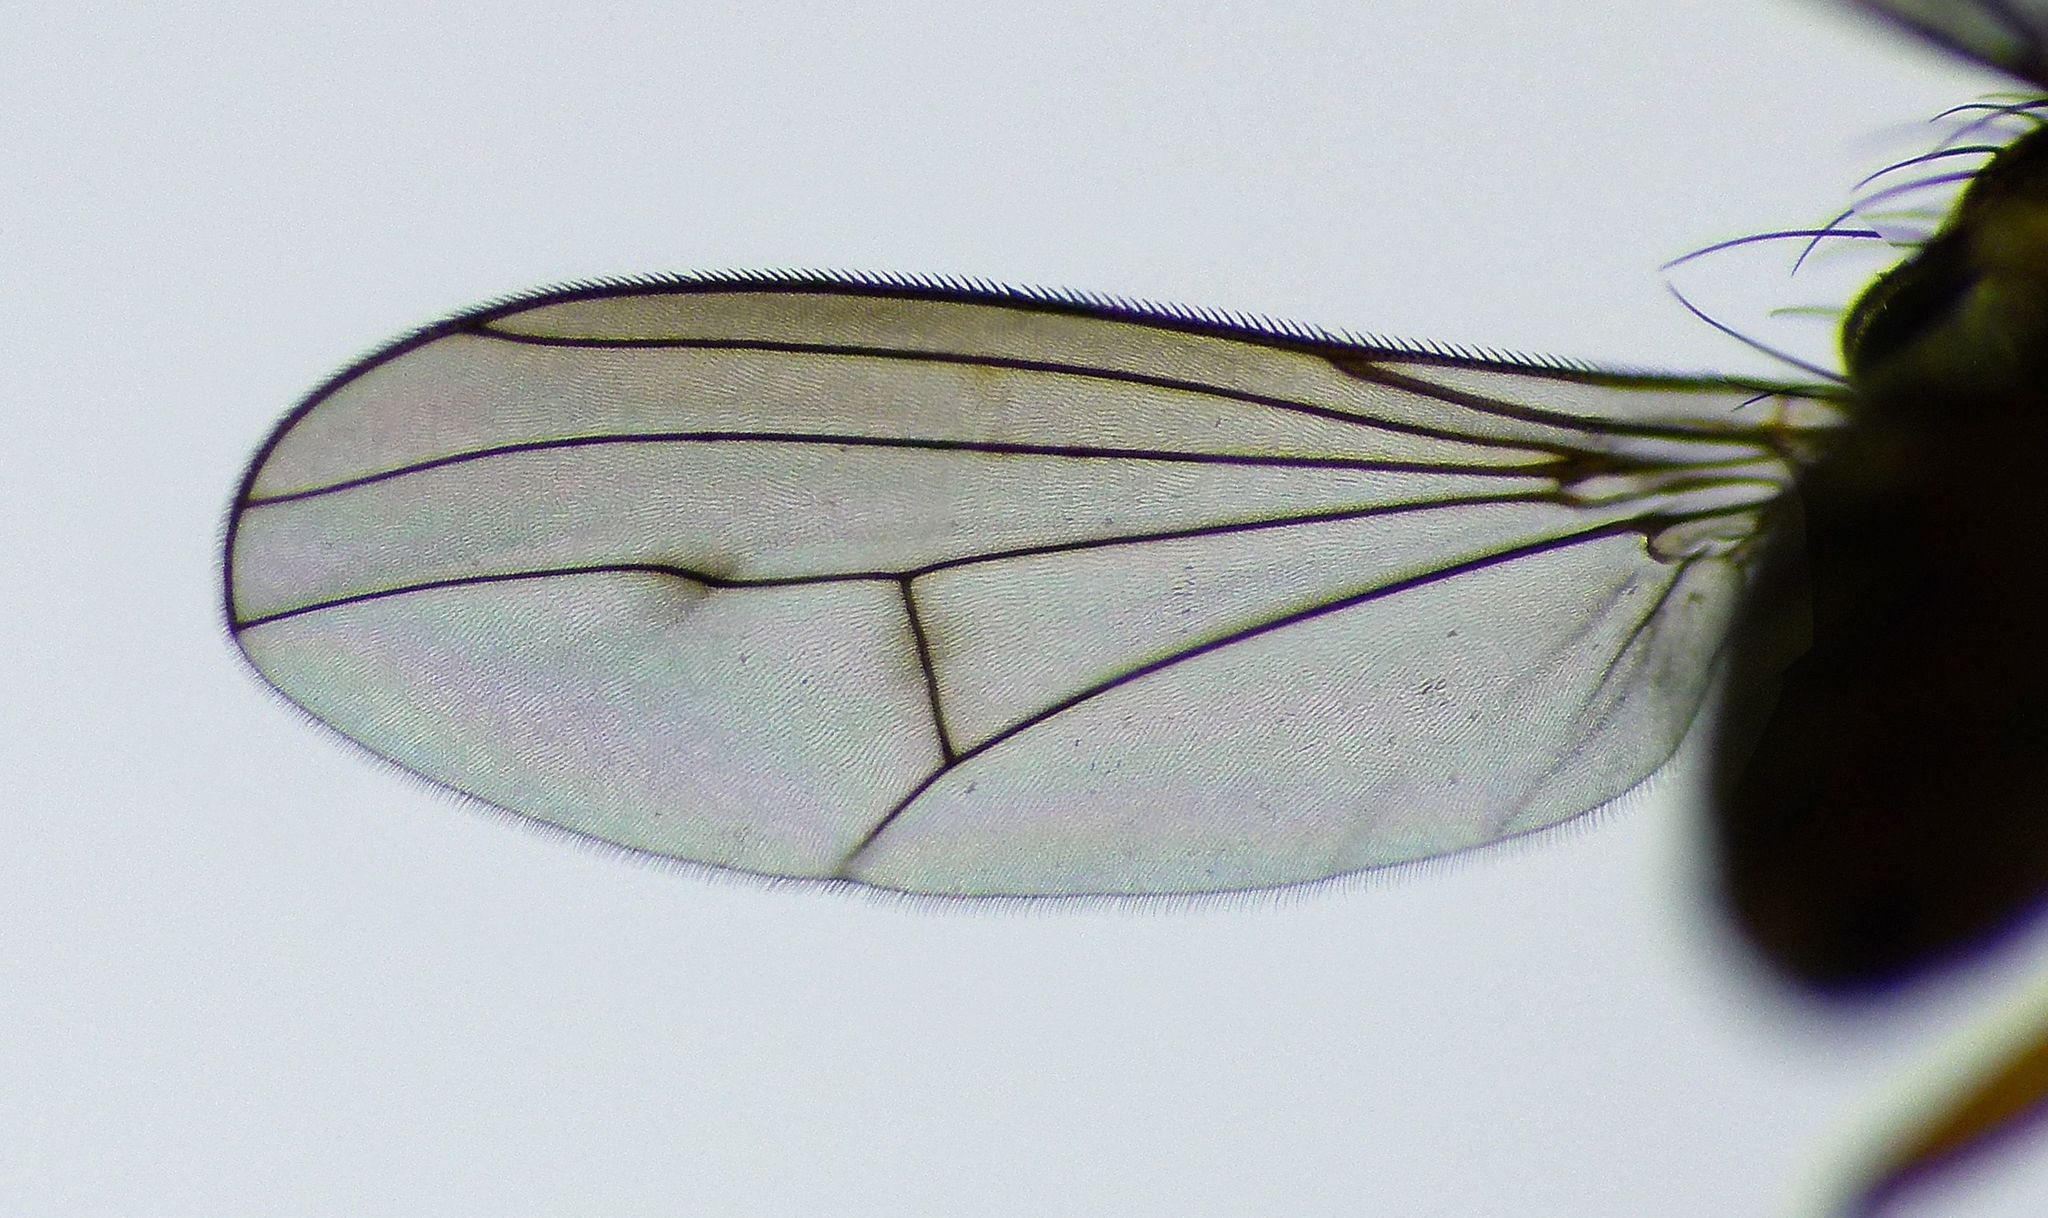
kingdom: Animalia
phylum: Arthropoda
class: Insecta
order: Diptera
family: Dolichopodidae
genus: Tetrachaetus
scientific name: Tetrachaetus bipunctatus
